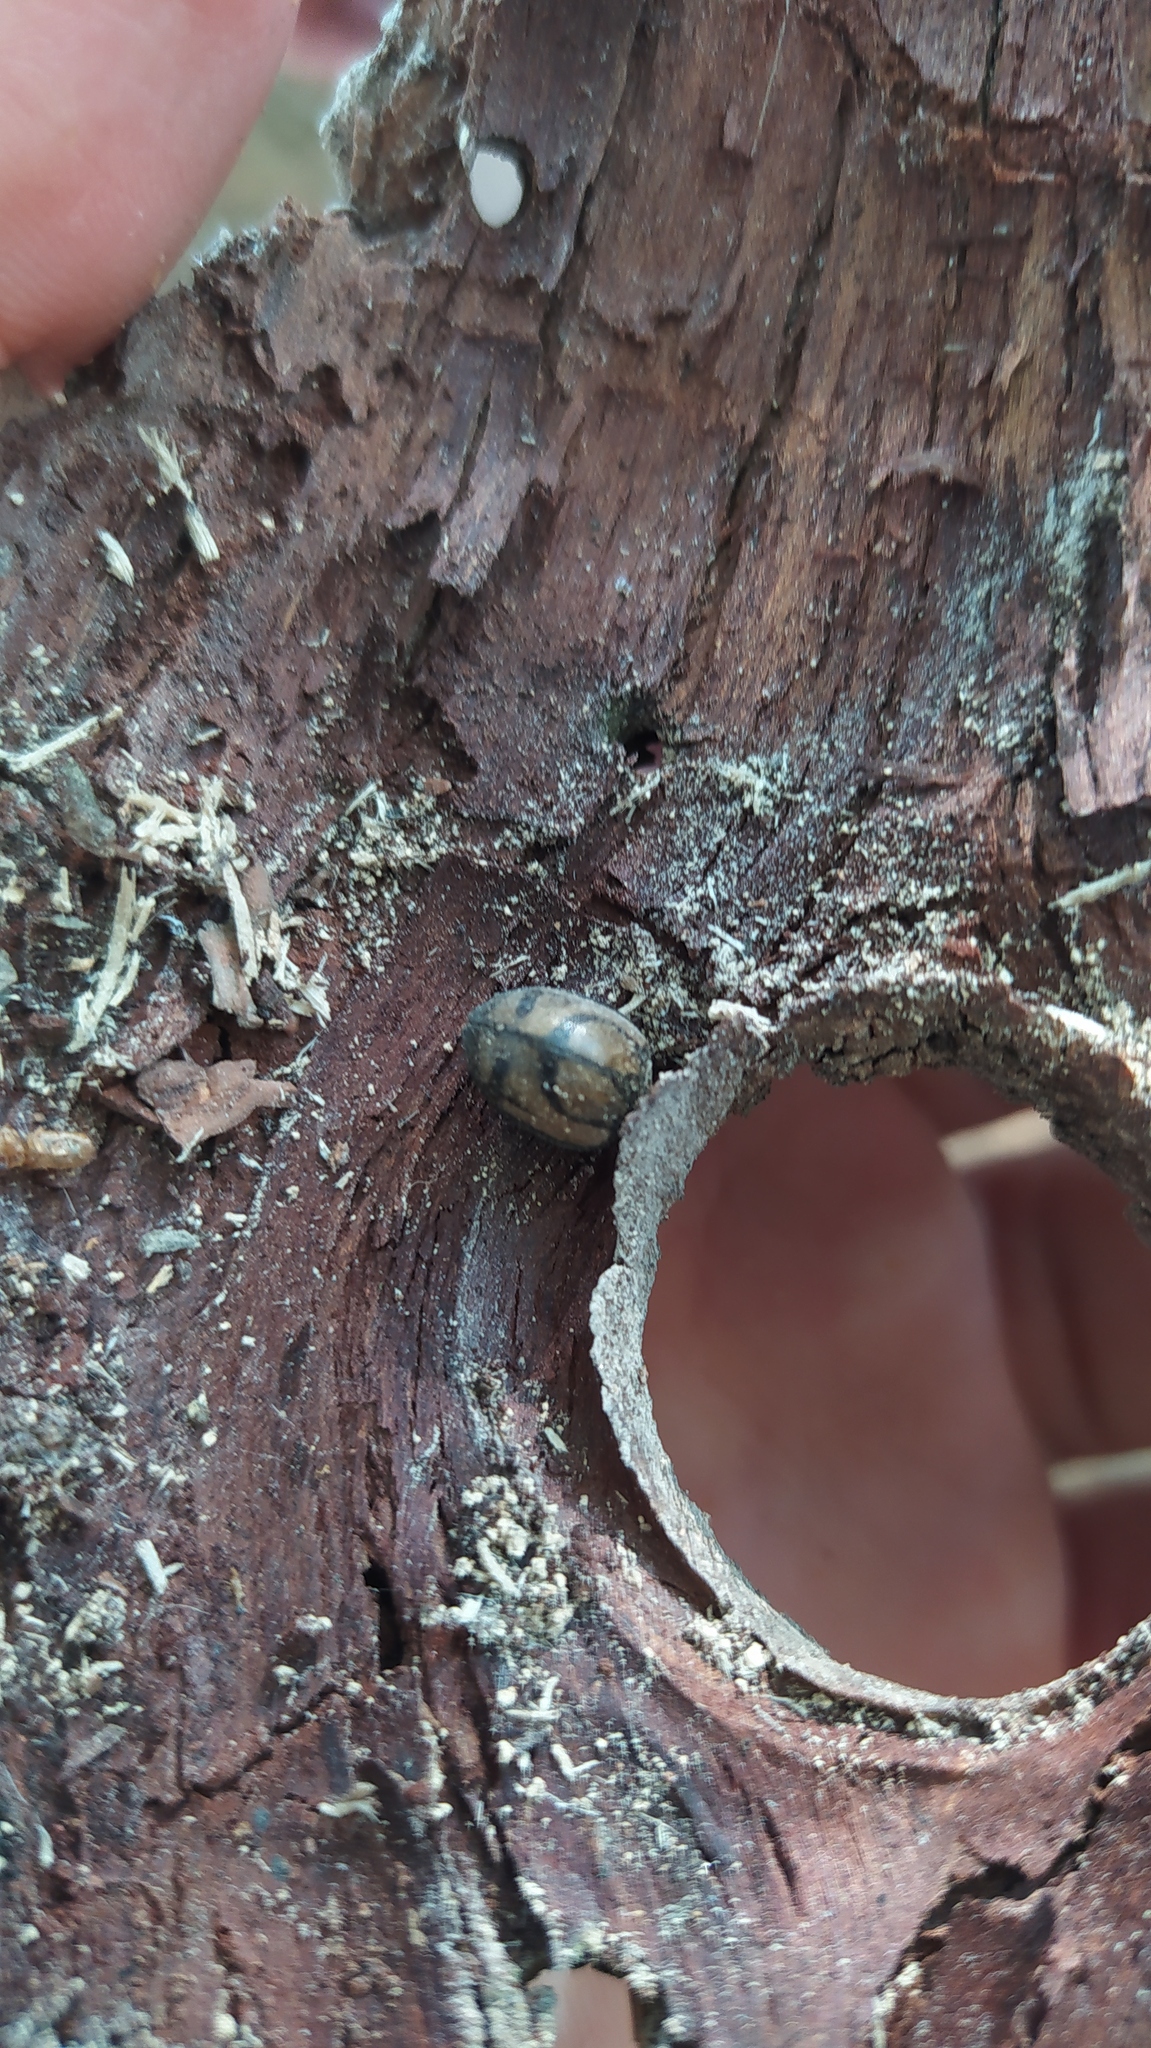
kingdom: Animalia
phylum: Arthropoda
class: Insecta
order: Coleoptera
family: Coccinellidae
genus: Epilachna
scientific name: Epilachna
